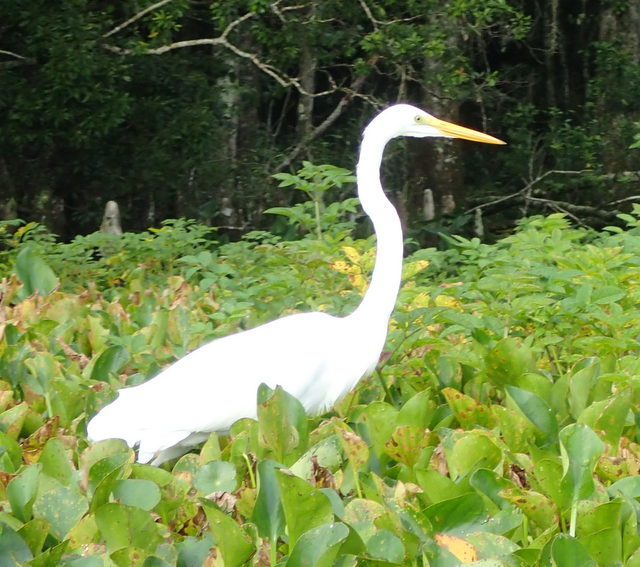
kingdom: Animalia
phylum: Chordata
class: Aves
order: Pelecaniformes
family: Ardeidae
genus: Ardea
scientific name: Ardea alba
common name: Great egret
